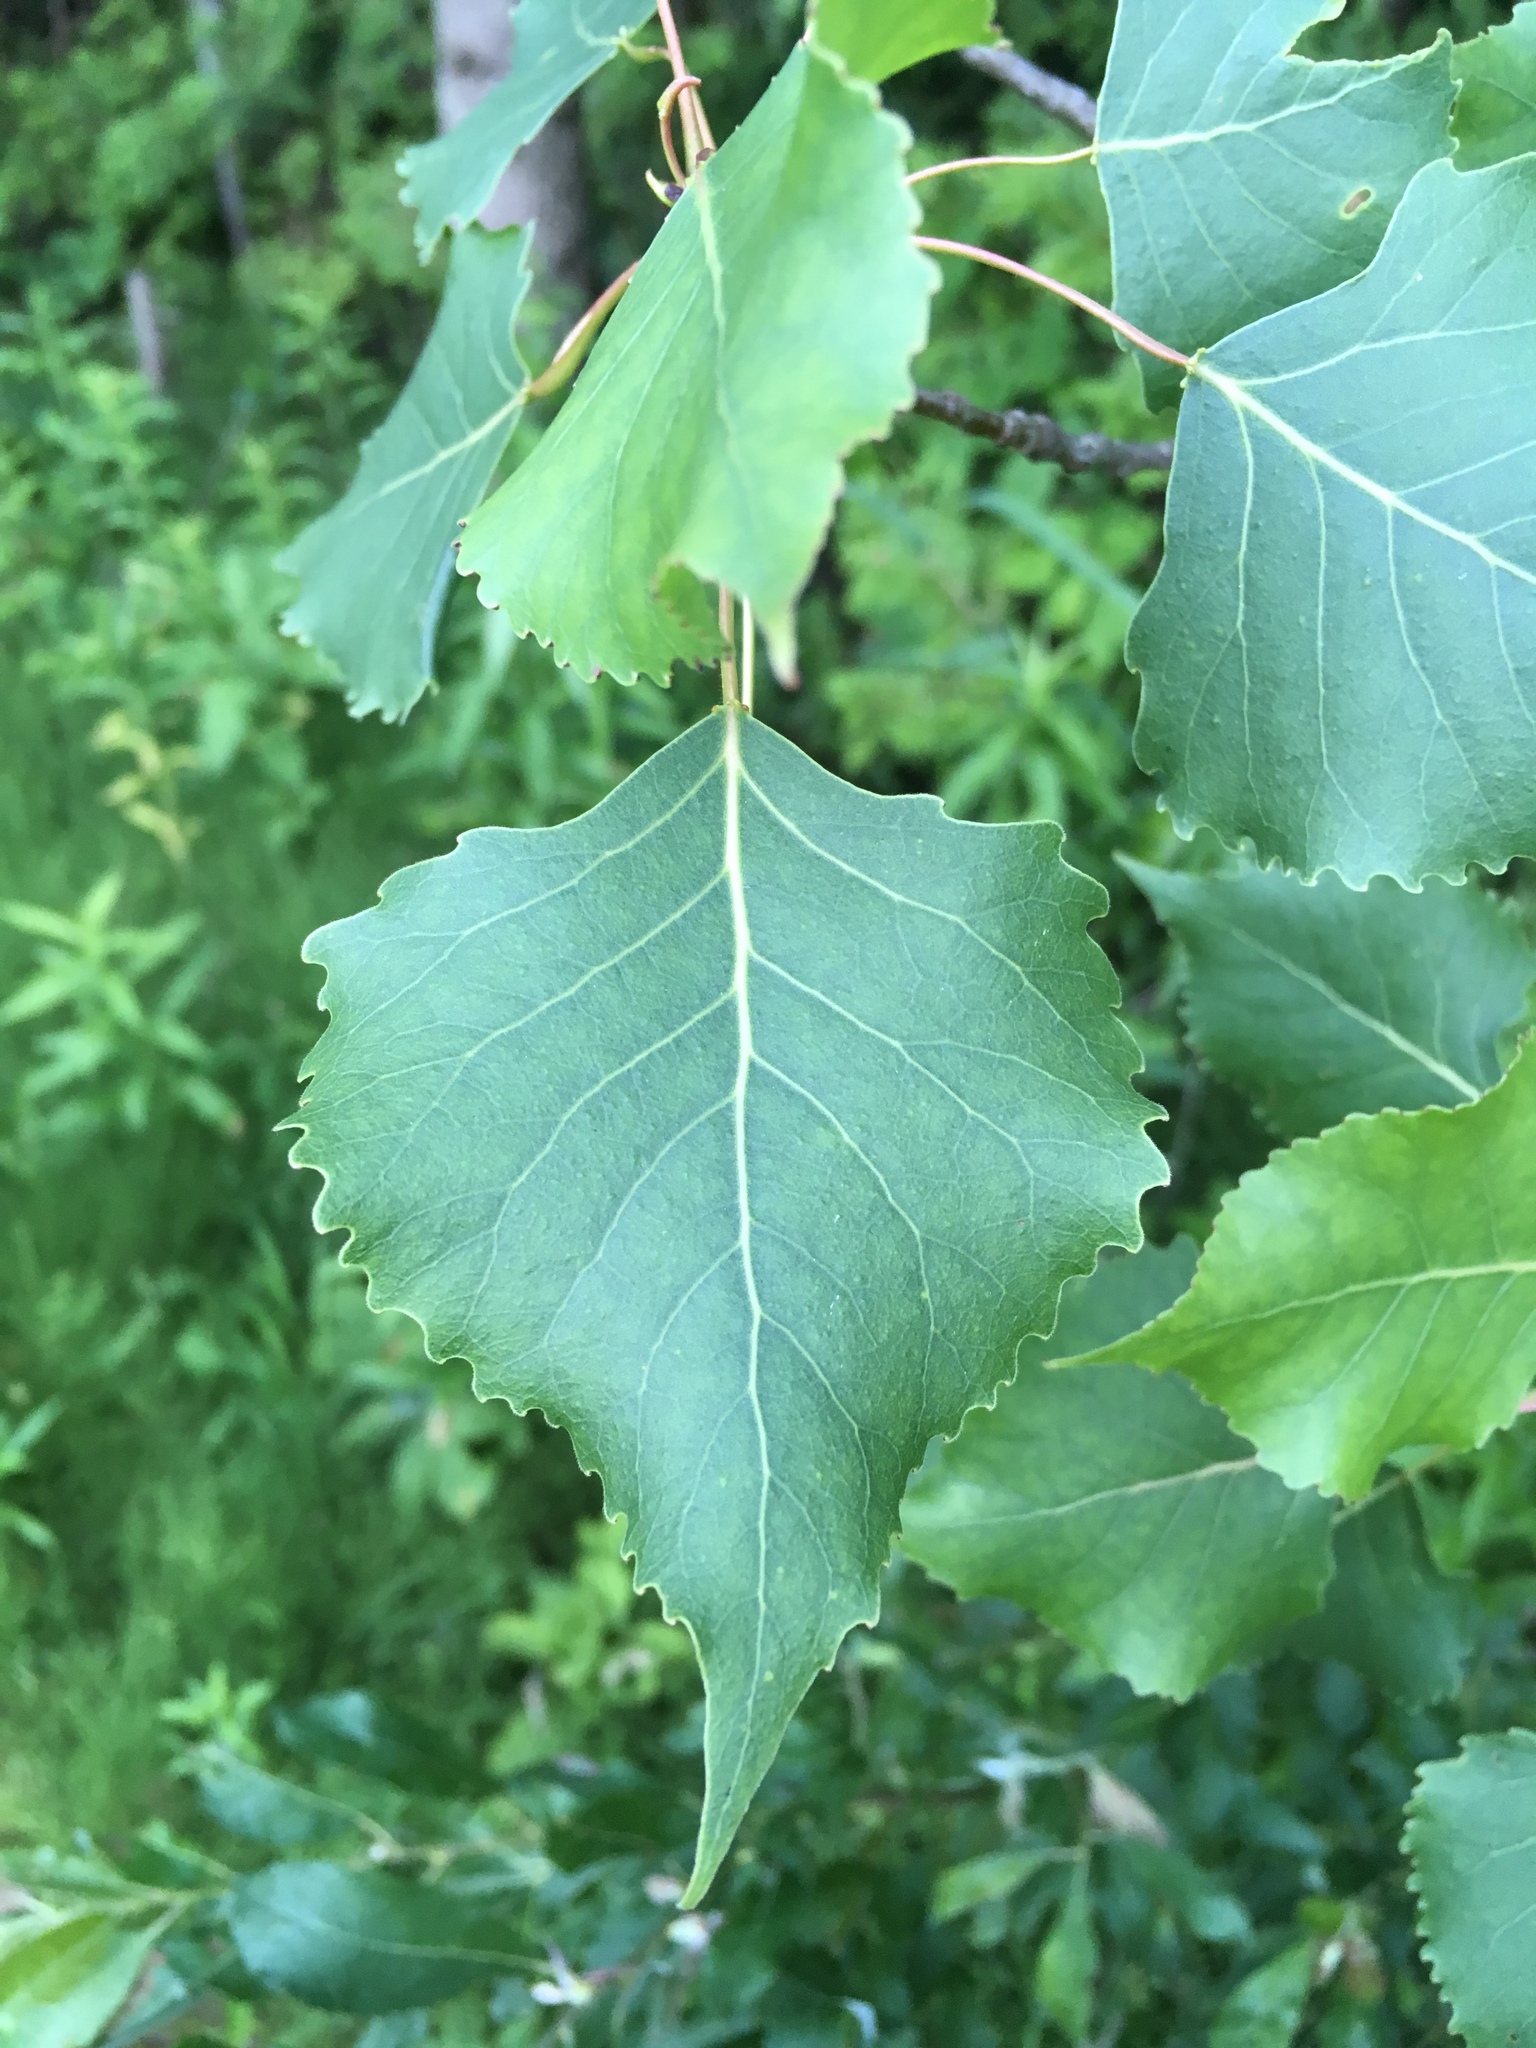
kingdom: Plantae
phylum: Tracheophyta
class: Magnoliopsida
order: Malpighiales
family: Salicaceae
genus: Populus
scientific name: Populus deltoides
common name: Eastern cottonwood
